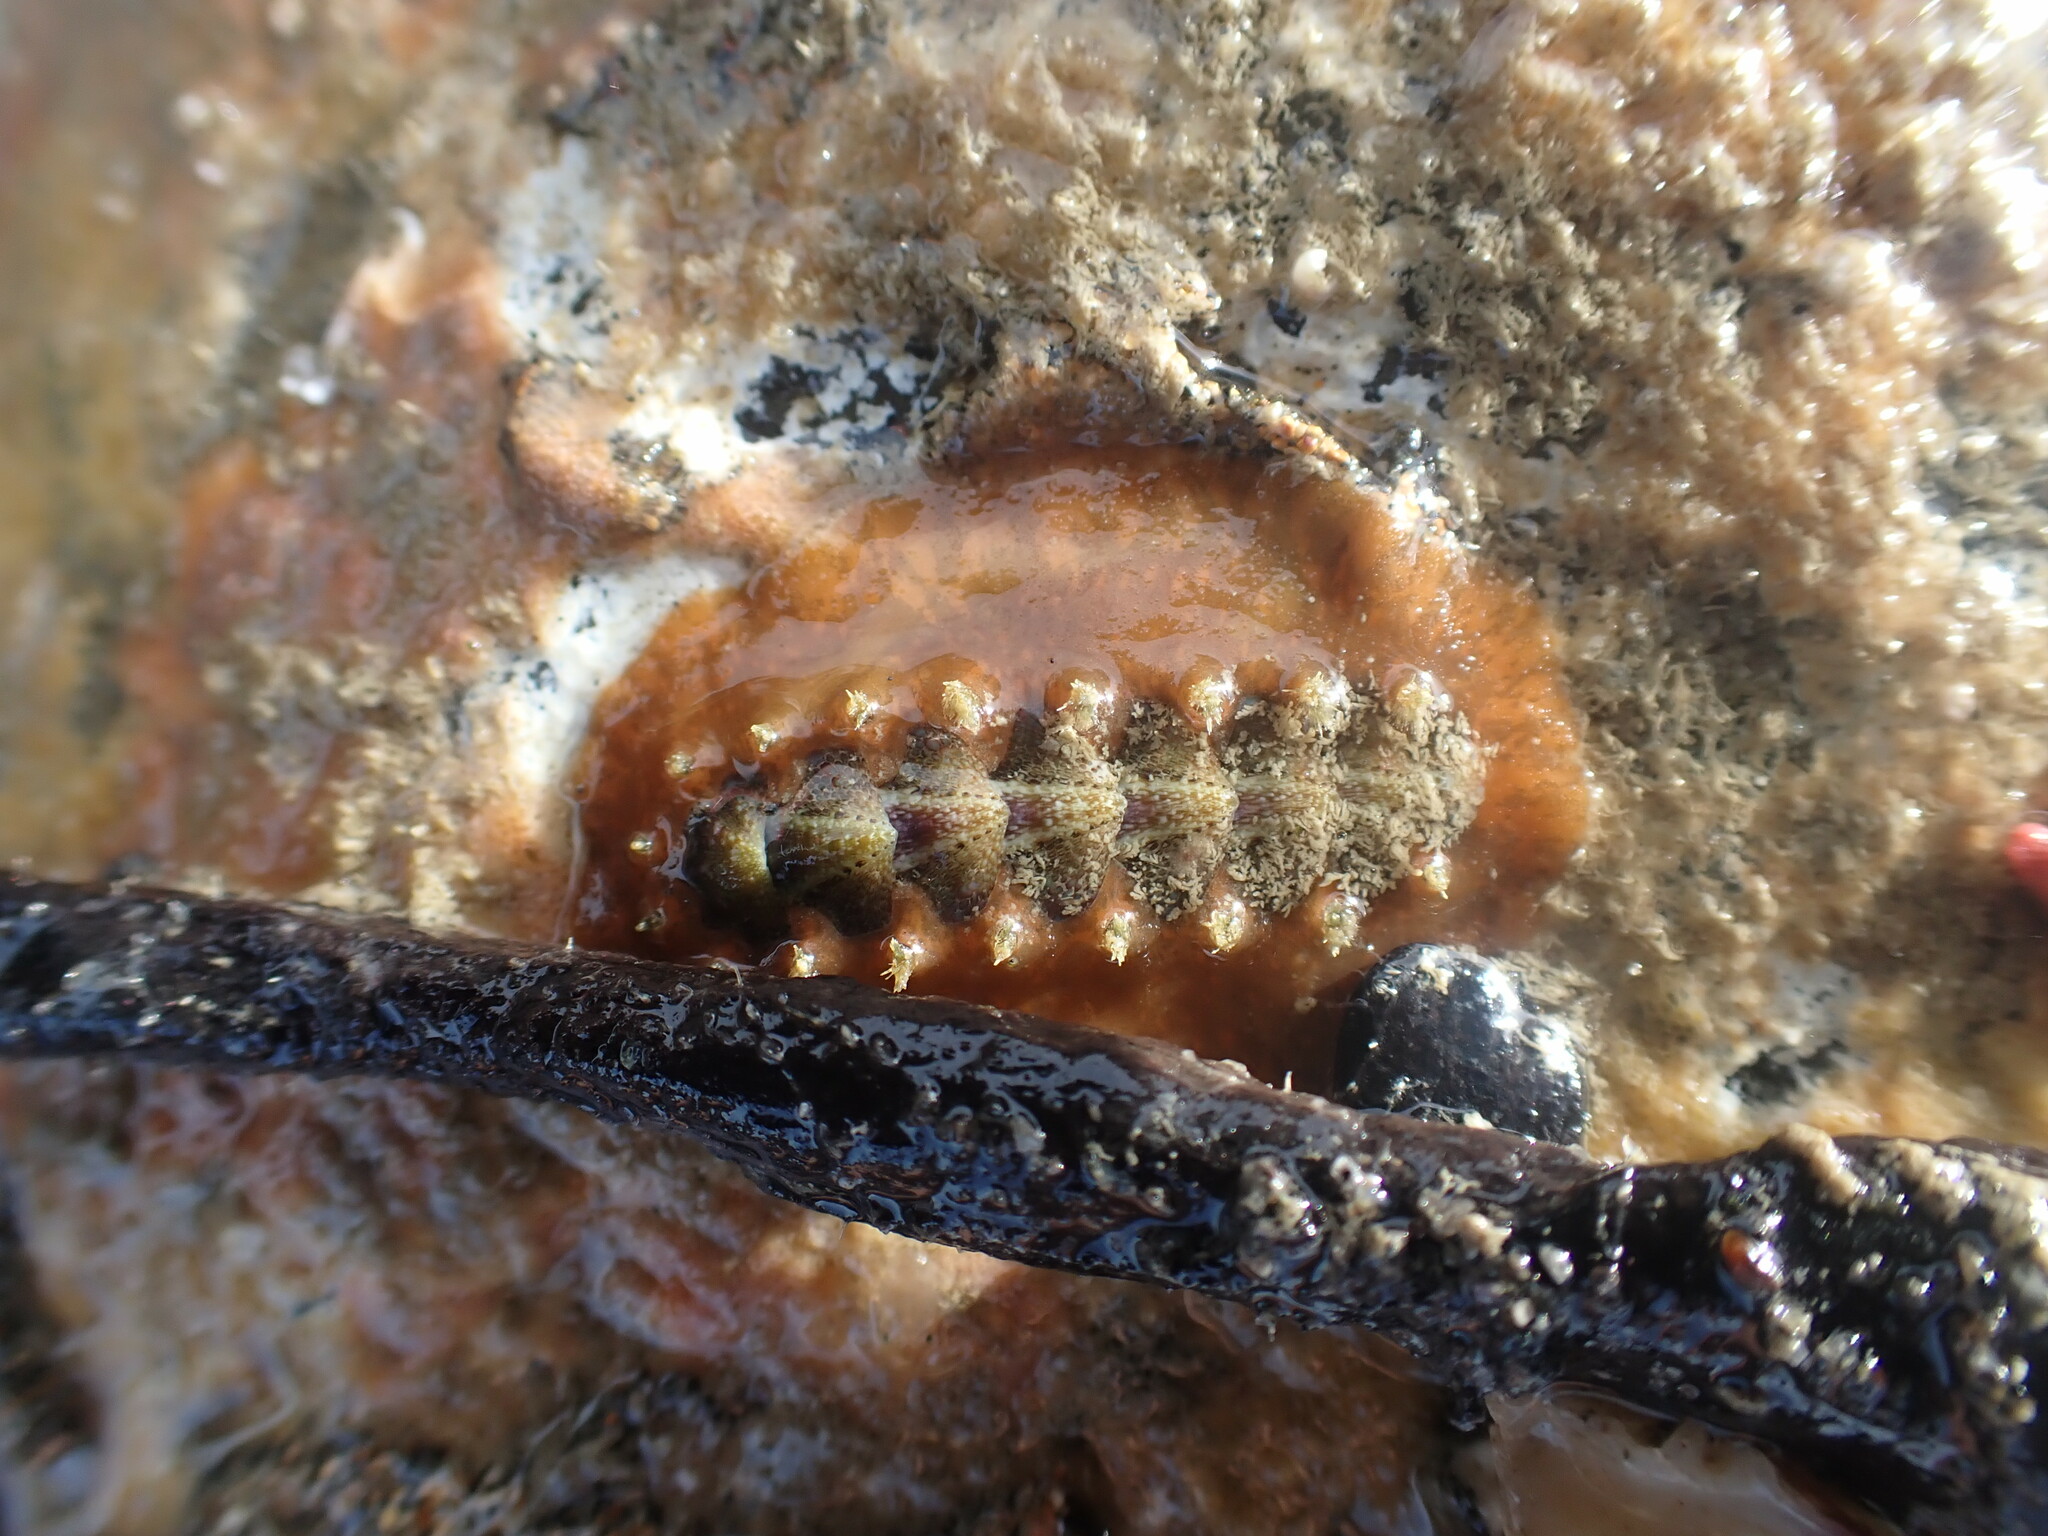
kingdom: Animalia
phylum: Mollusca
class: Polyplacophora
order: Chitonida
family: Acanthochitonidae
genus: Notoplax
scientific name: Notoplax violacea
